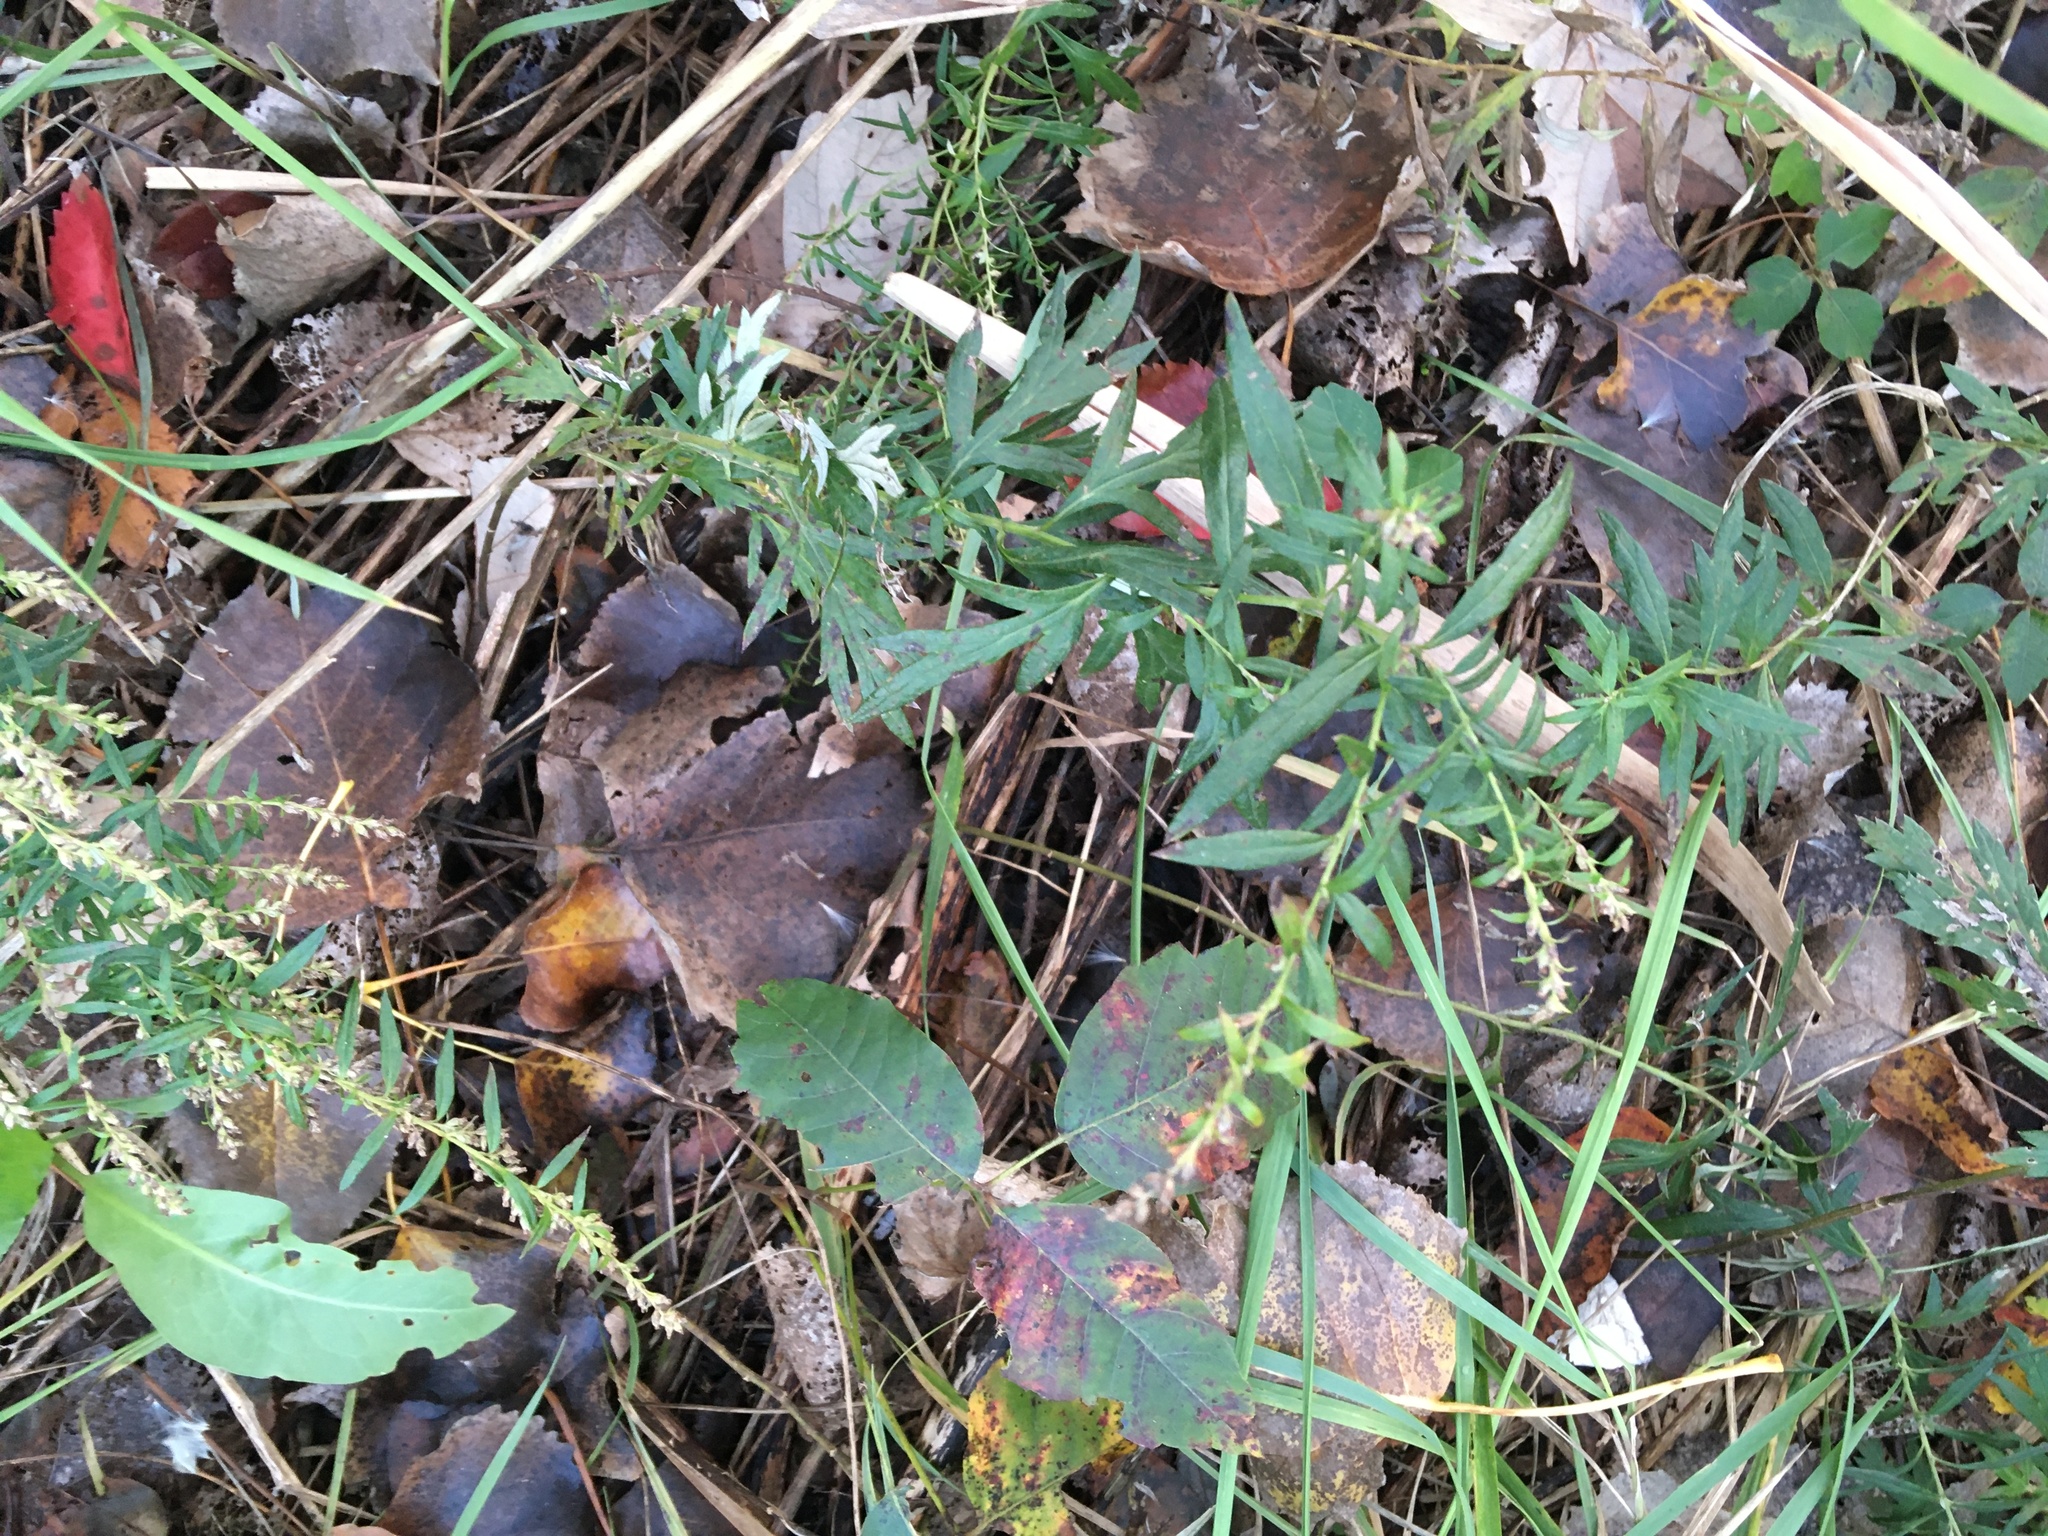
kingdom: Plantae
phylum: Tracheophyta
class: Magnoliopsida
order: Asterales
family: Asteraceae
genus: Artemisia
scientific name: Artemisia vulgaris
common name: Mugwort
